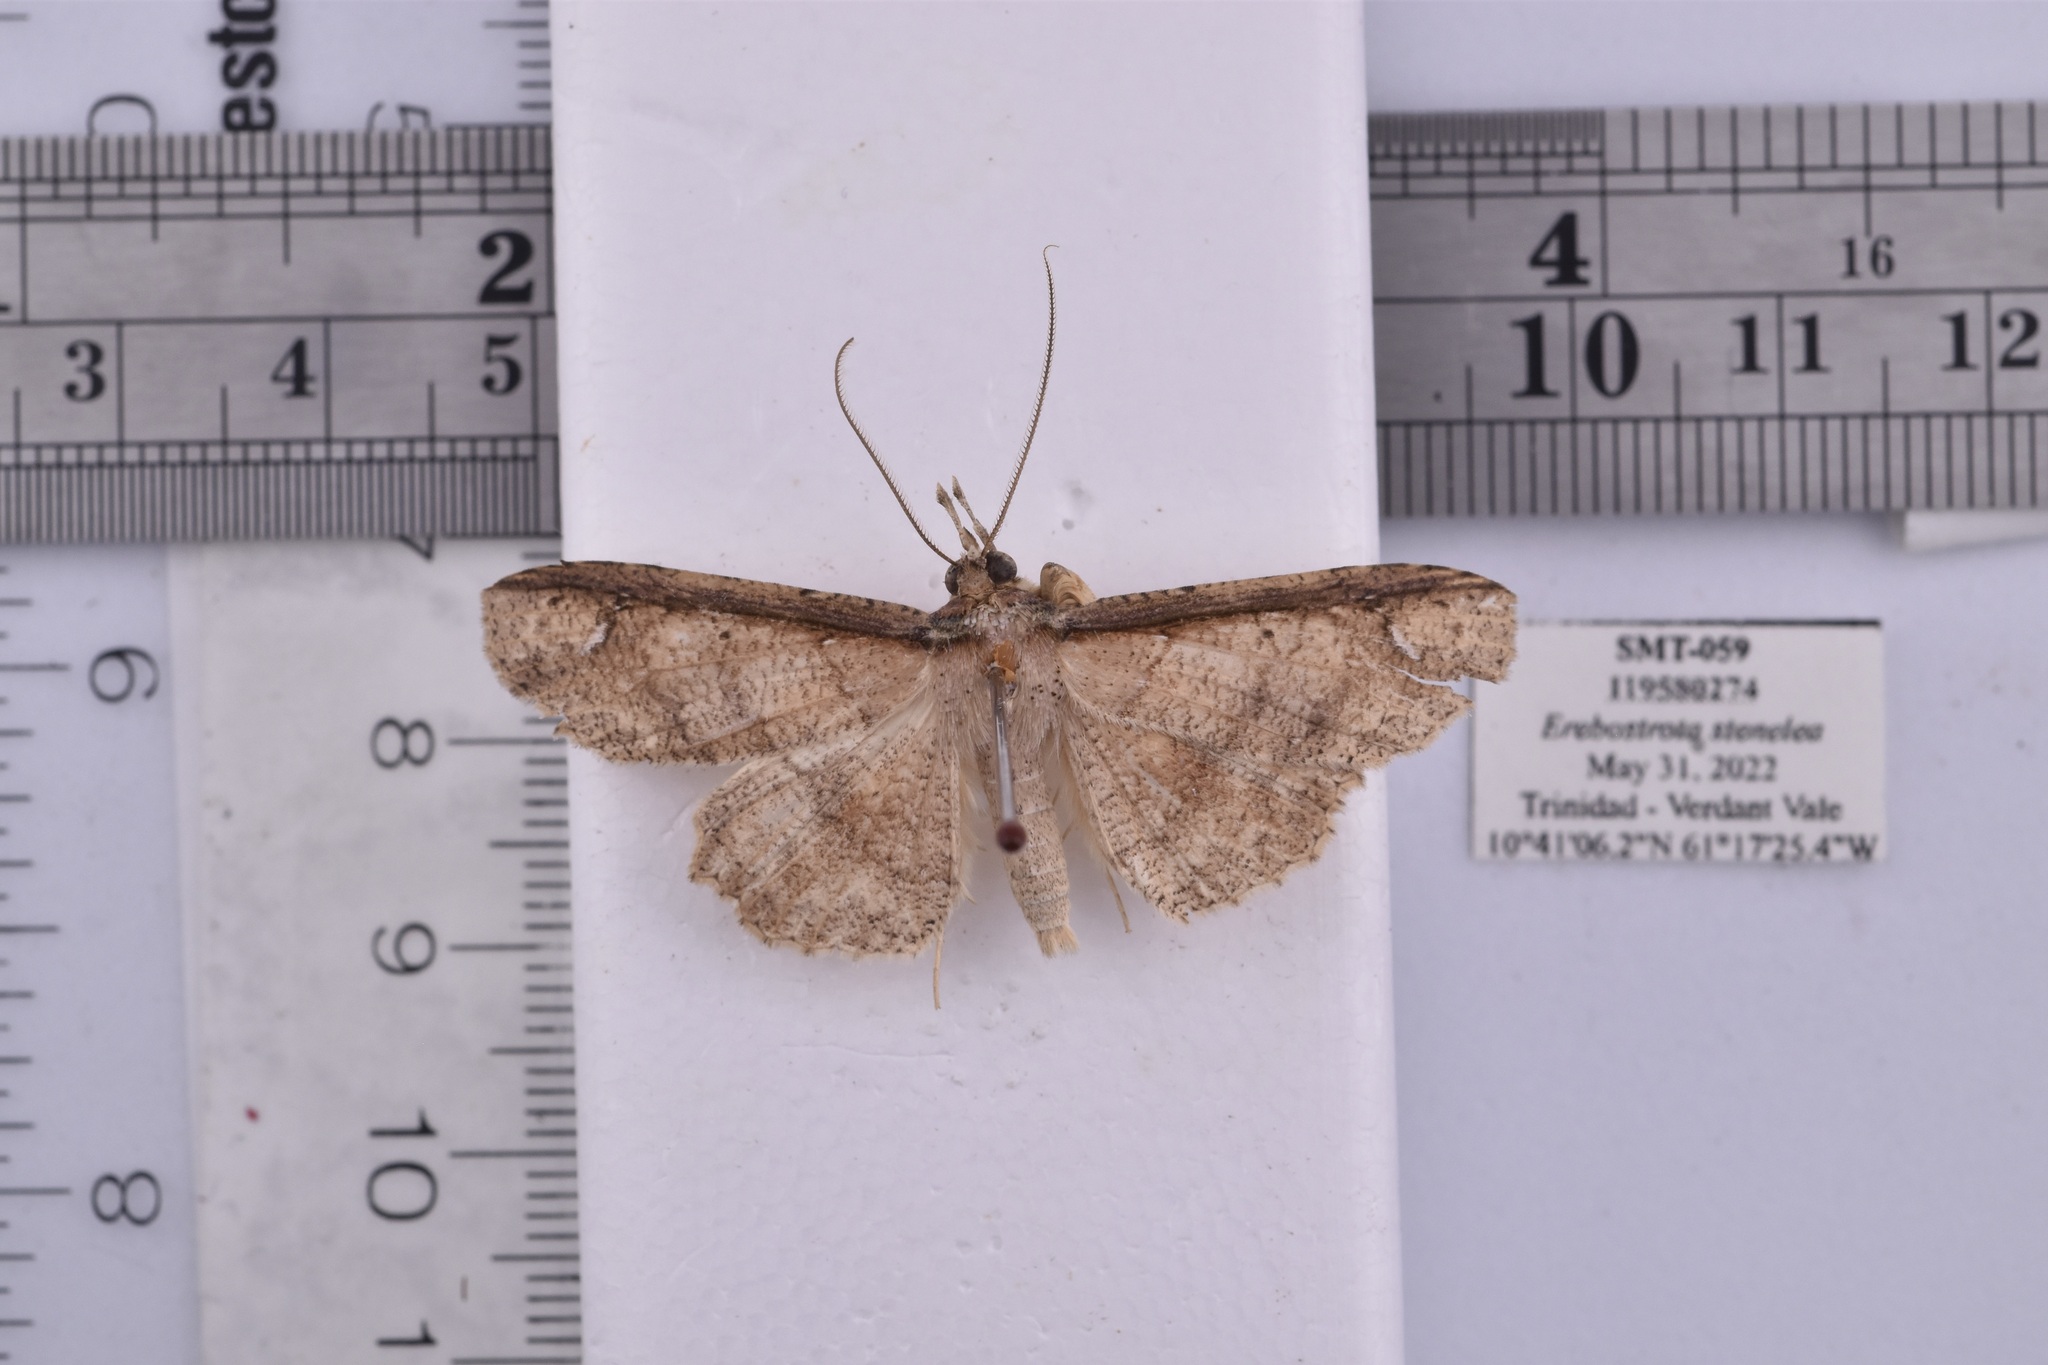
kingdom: Animalia
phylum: Arthropoda
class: Insecta
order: Lepidoptera
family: Erebidae
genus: Erebostrota
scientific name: Erebostrota stenelea
